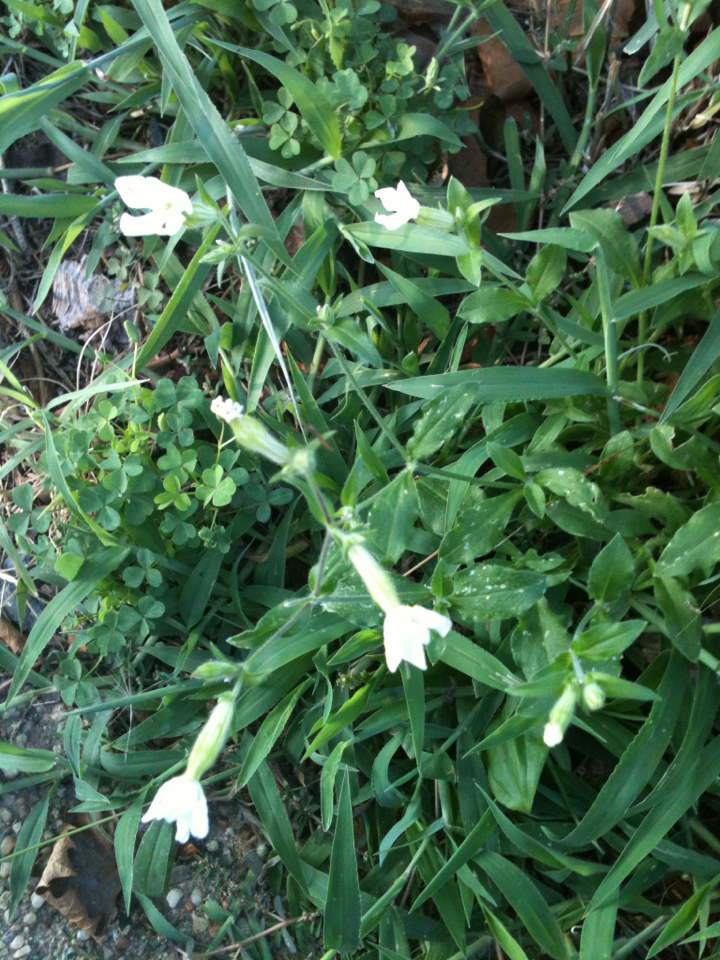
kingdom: Plantae
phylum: Tracheophyta
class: Magnoliopsida
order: Caryophyllales
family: Caryophyllaceae
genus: Silene
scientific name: Silene latifolia
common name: White campion
